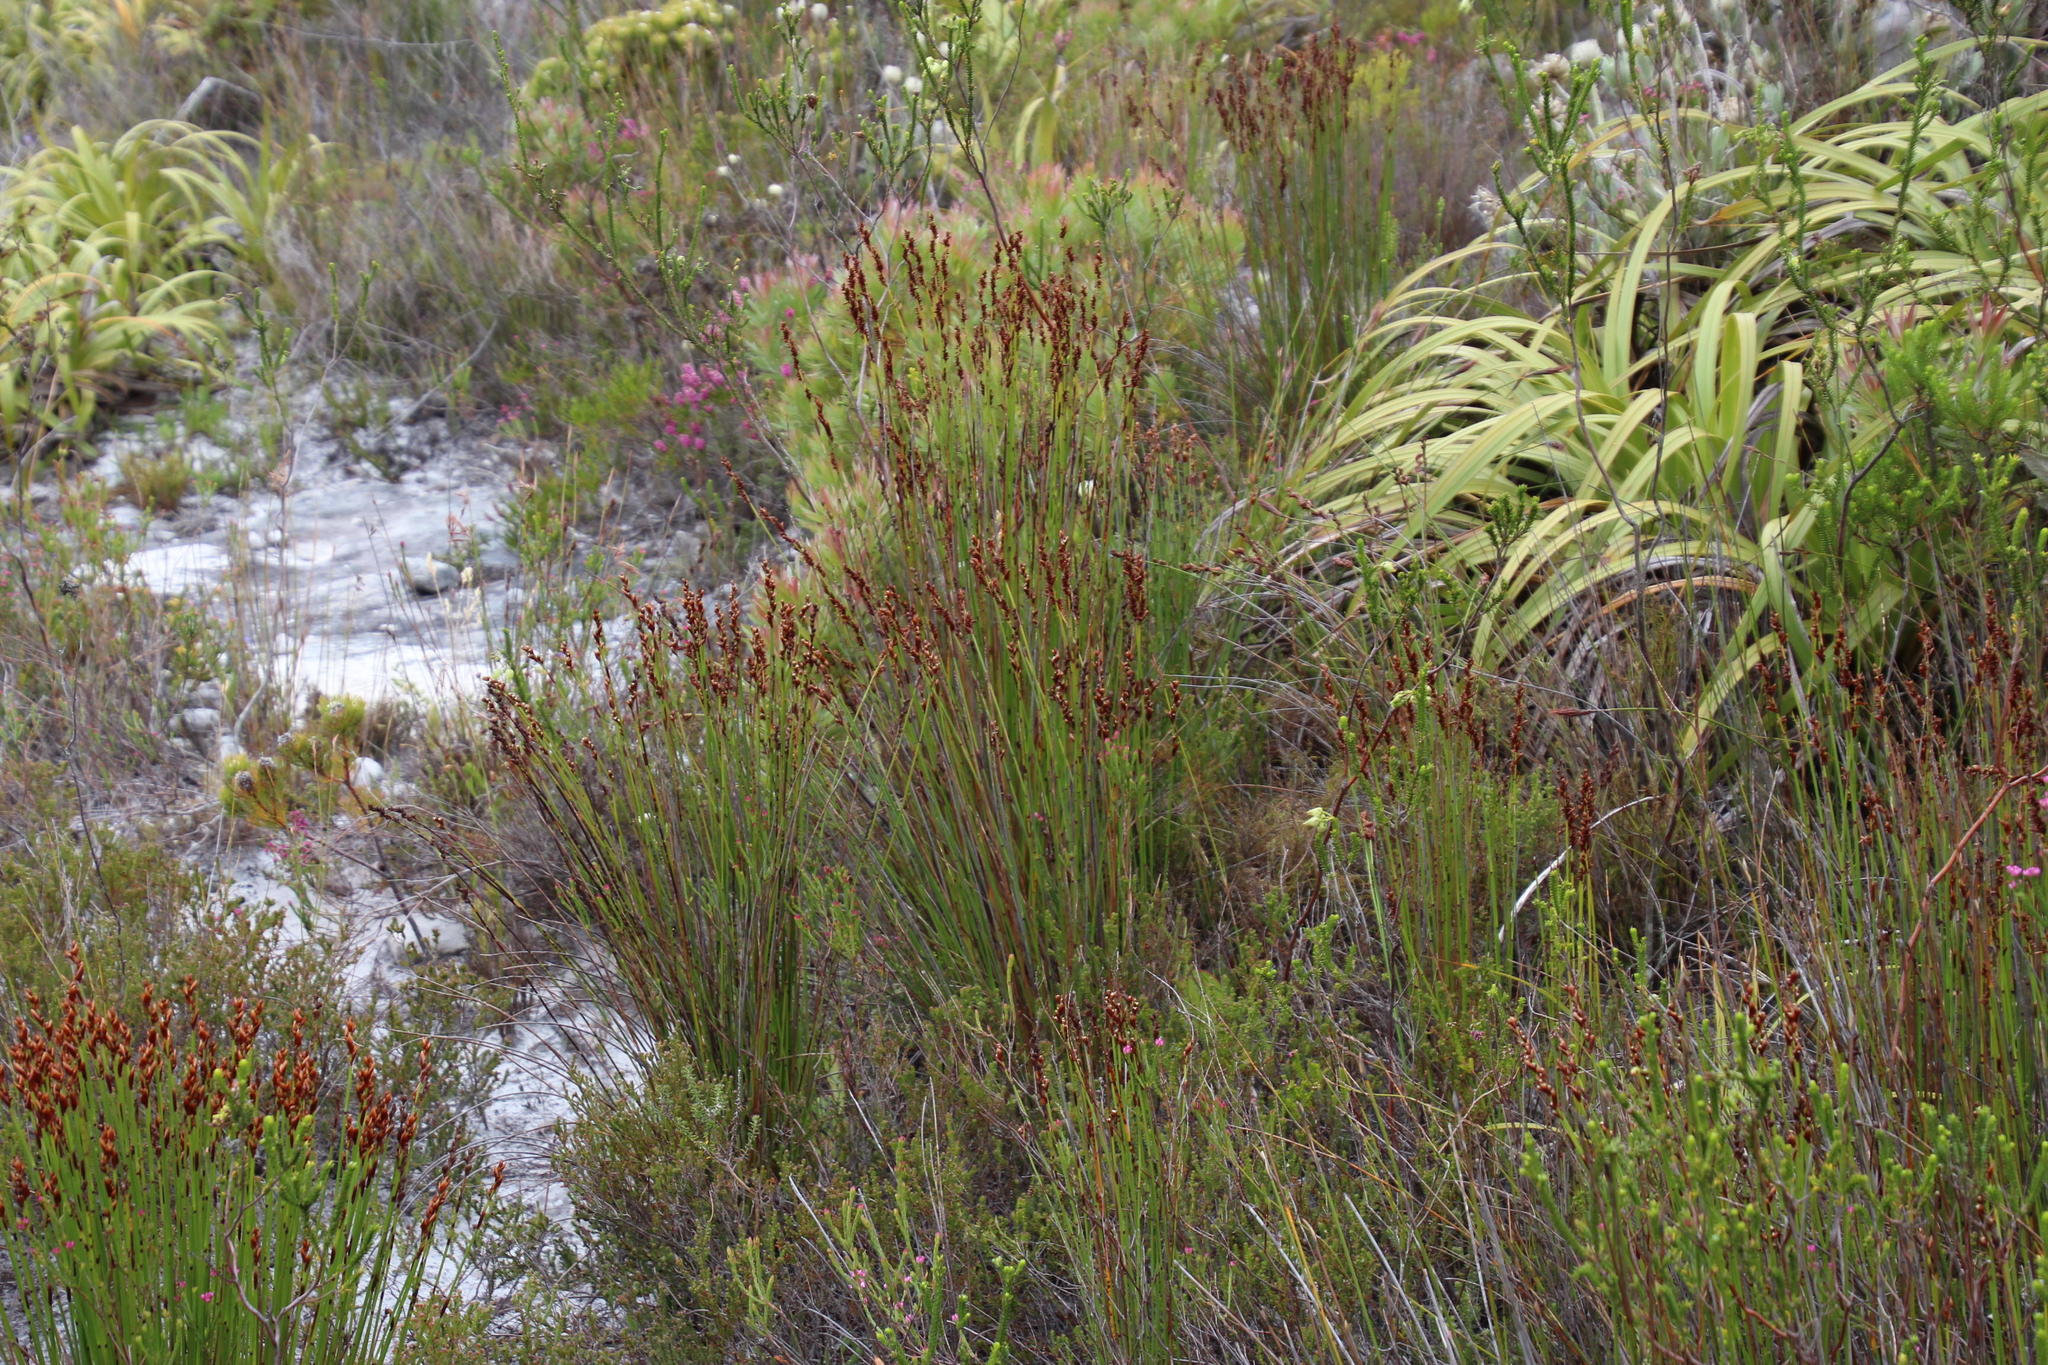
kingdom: Plantae
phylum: Tracheophyta
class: Liliopsida
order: Poales
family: Restionaceae
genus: Elegia
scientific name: Elegia ebracteata
